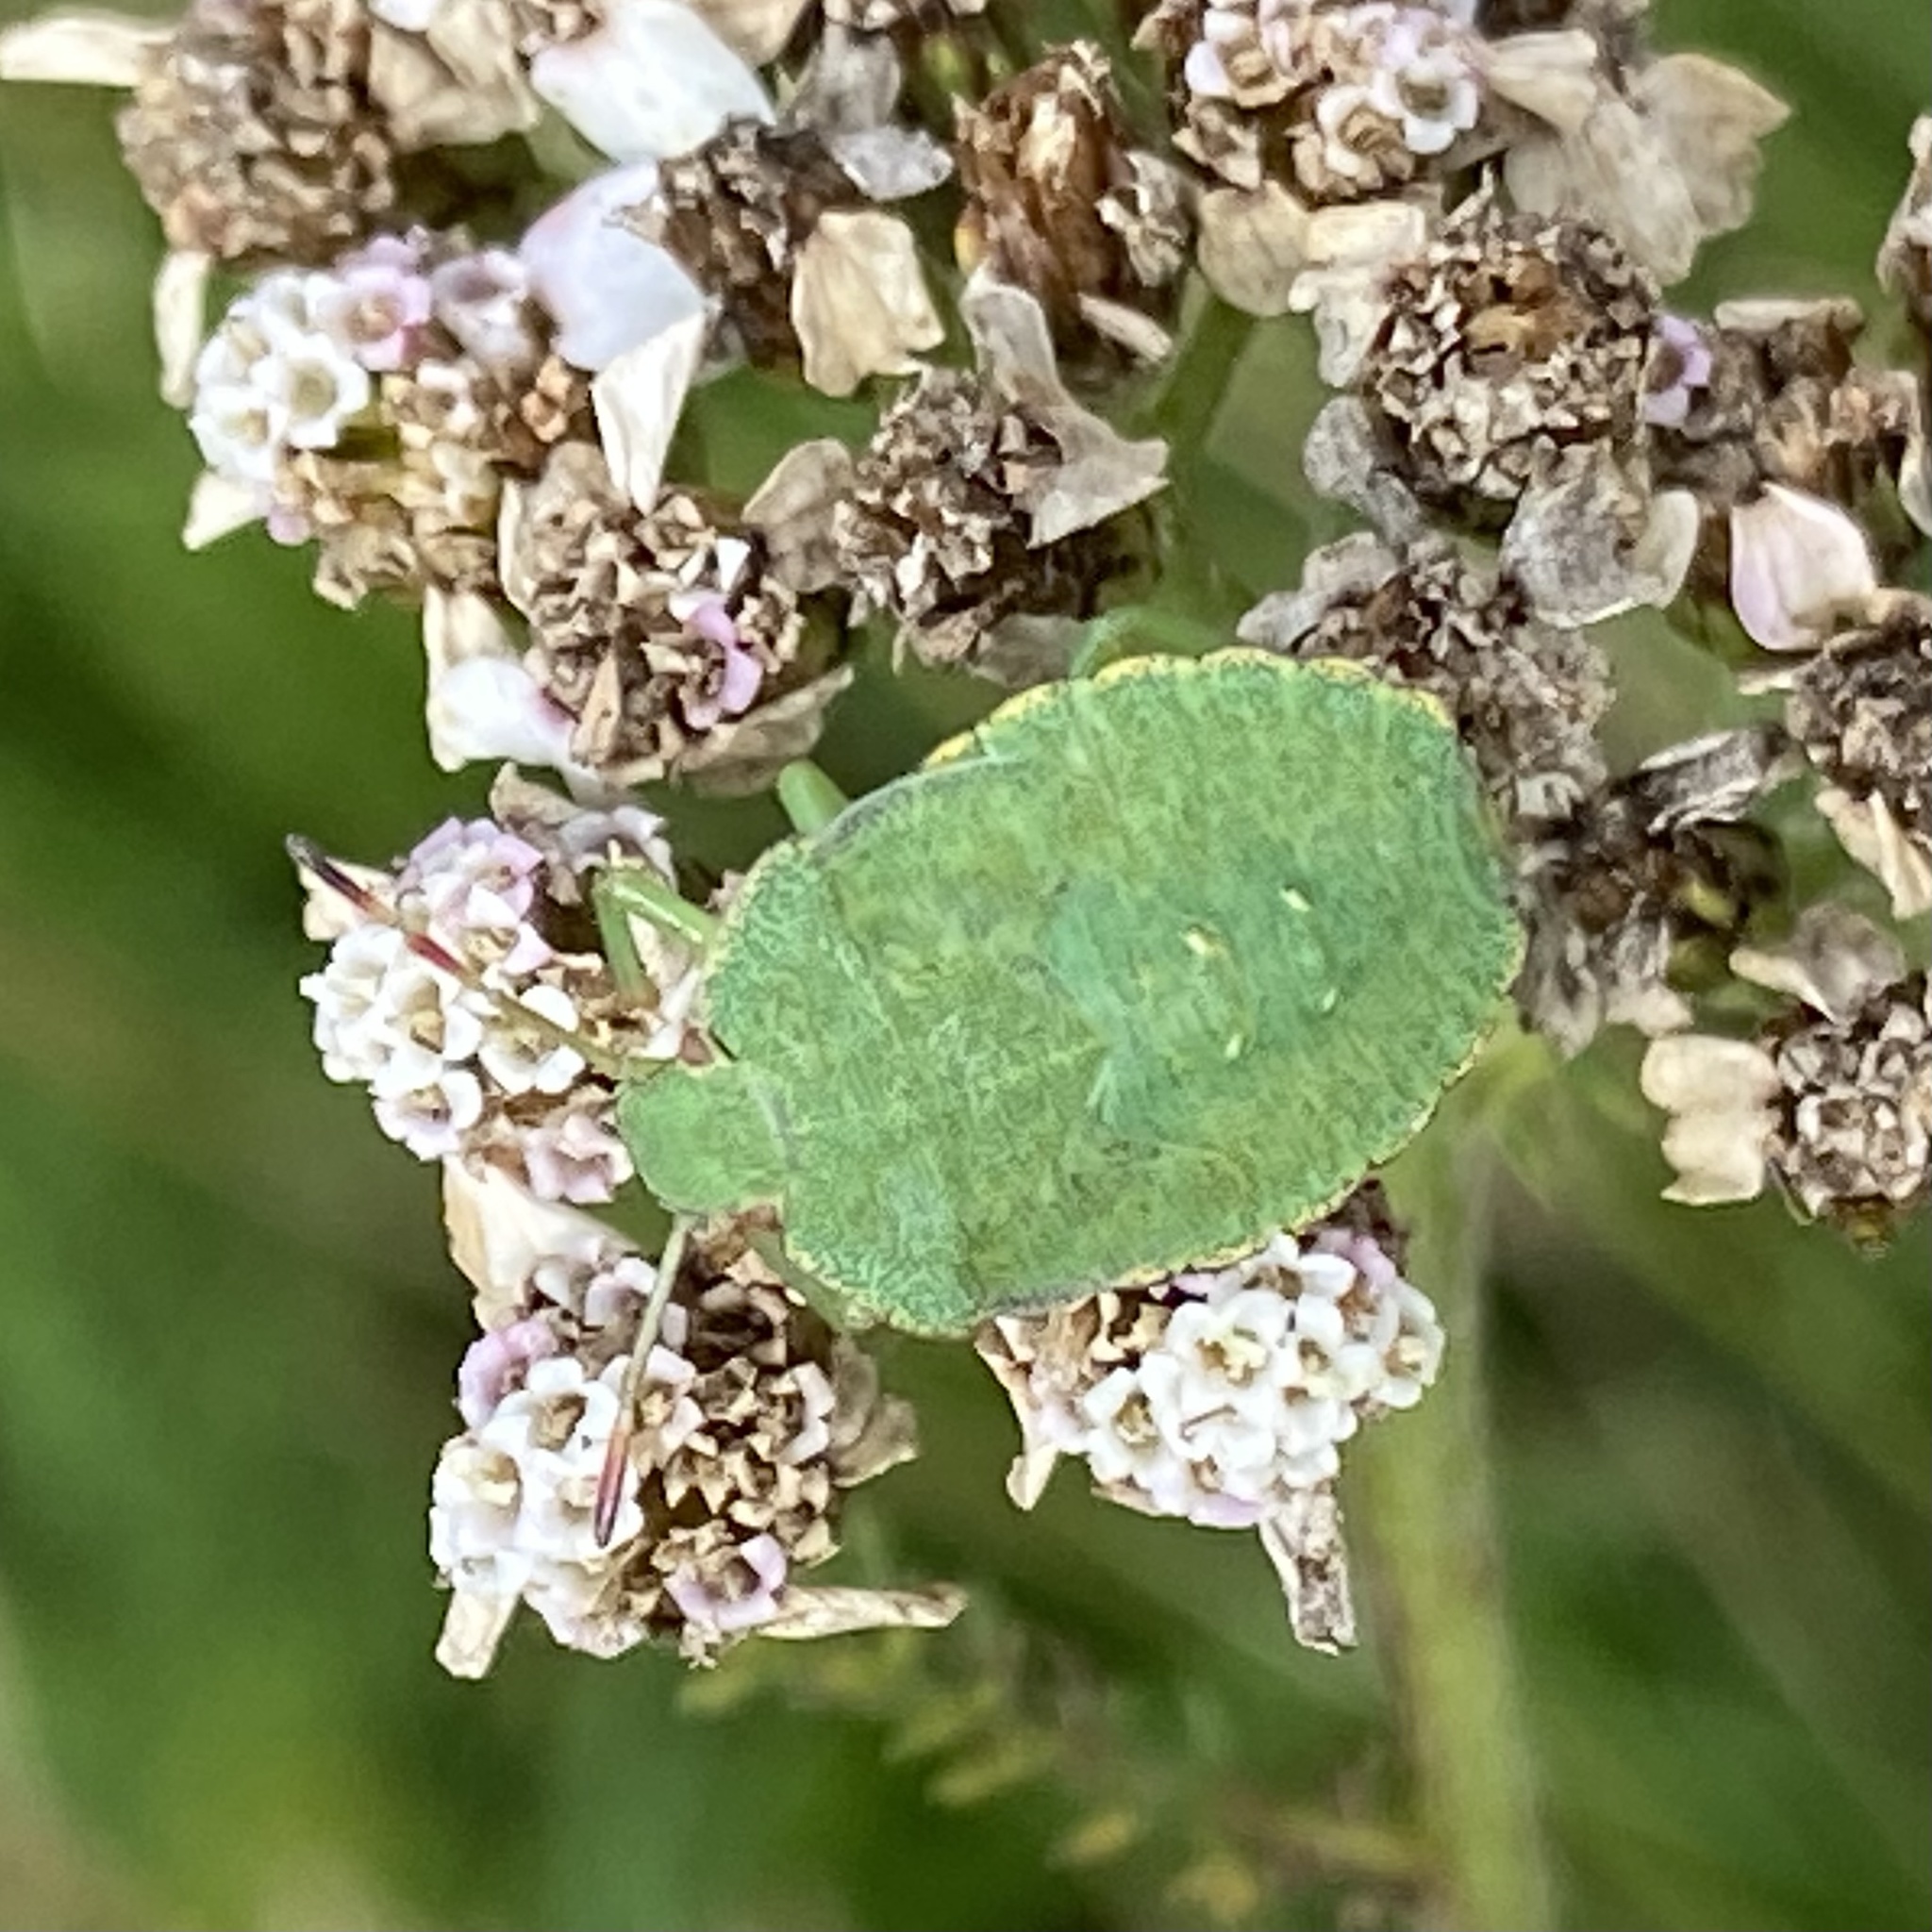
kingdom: Animalia
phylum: Arthropoda
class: Insecta
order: Hemiptera
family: Pentatomidae
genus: Palomena
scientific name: Palomena prasina
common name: Green shieldbug
